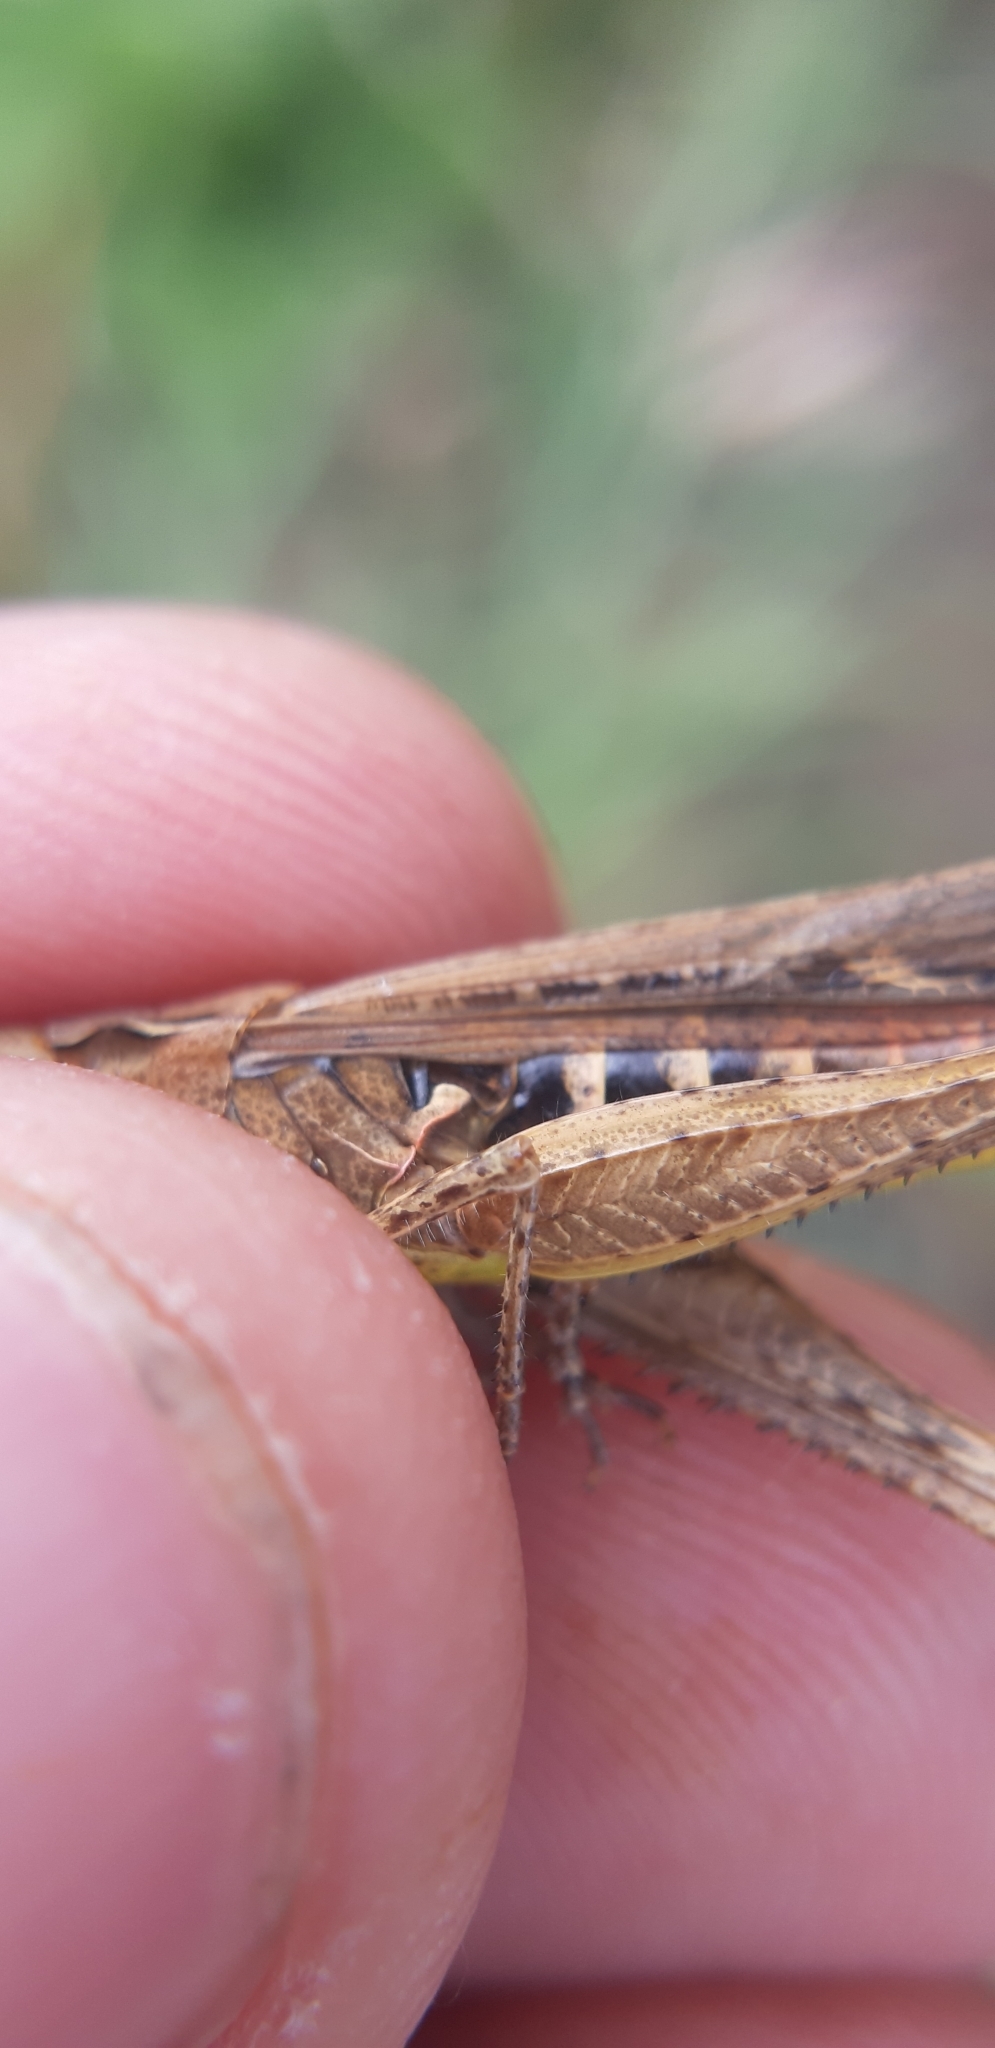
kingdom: Animalia
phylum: Arthropoda
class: Insecta
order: Orthoptera
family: Acrididae
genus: Chorthippus
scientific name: Chorthippus brunneus
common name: Field grasshopper
